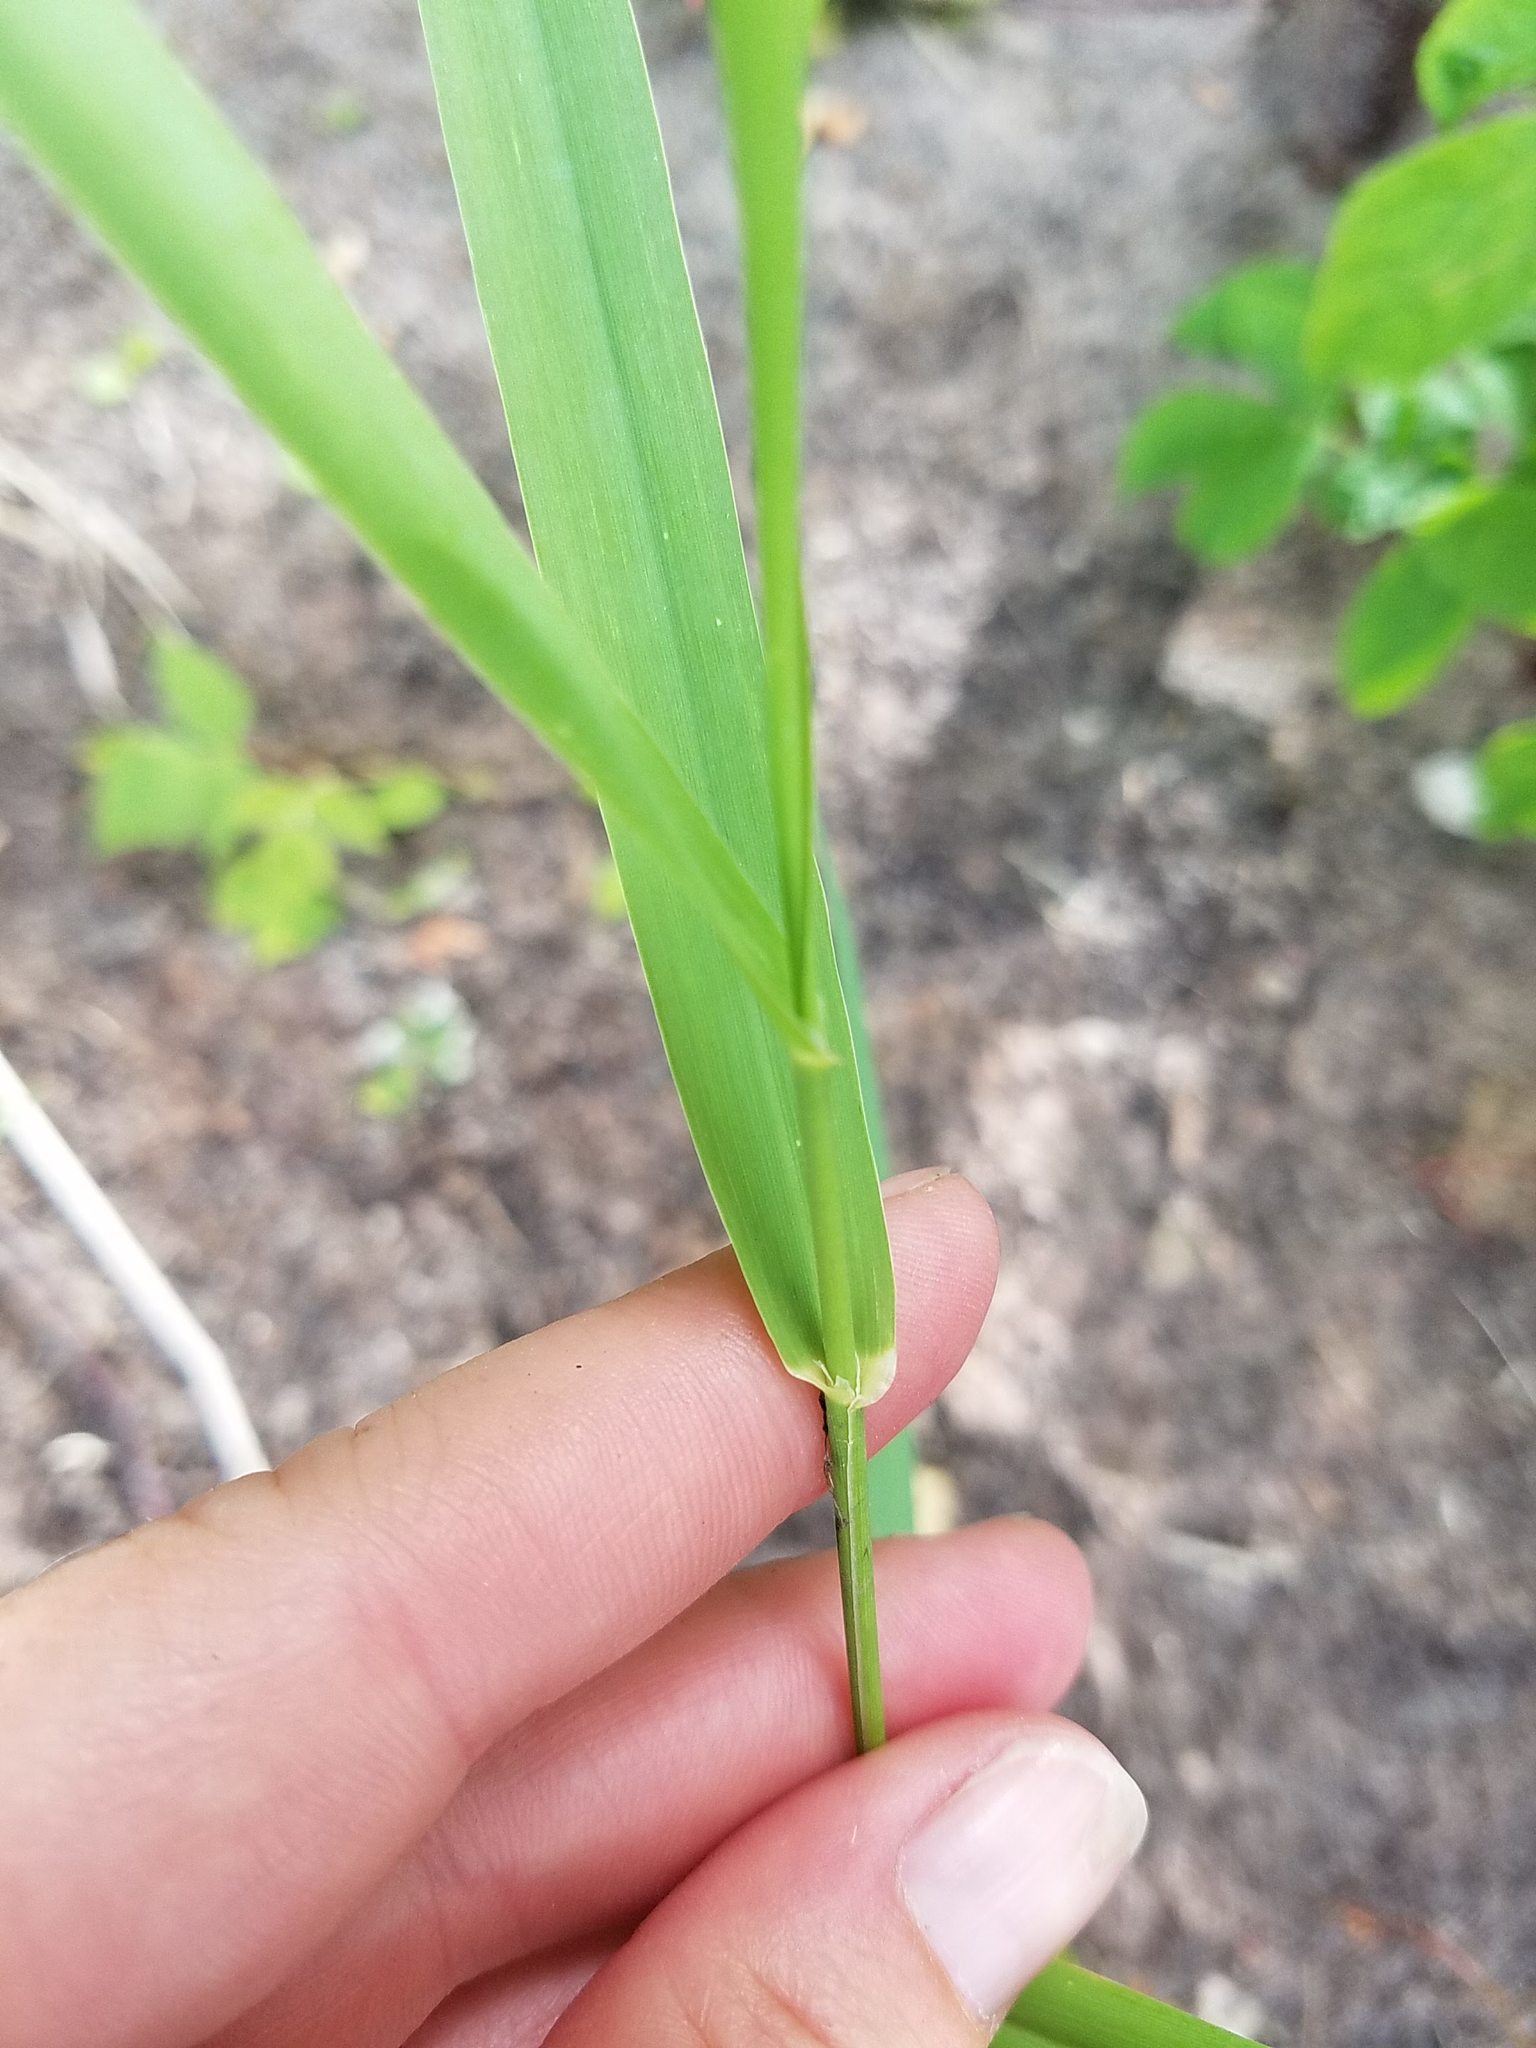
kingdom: Plantae
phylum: Tracheophyta
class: Liliopsida
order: Poales
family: Poaceae
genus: Phalaris
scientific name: Phalaris arundinacea
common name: Reed canary-grass
